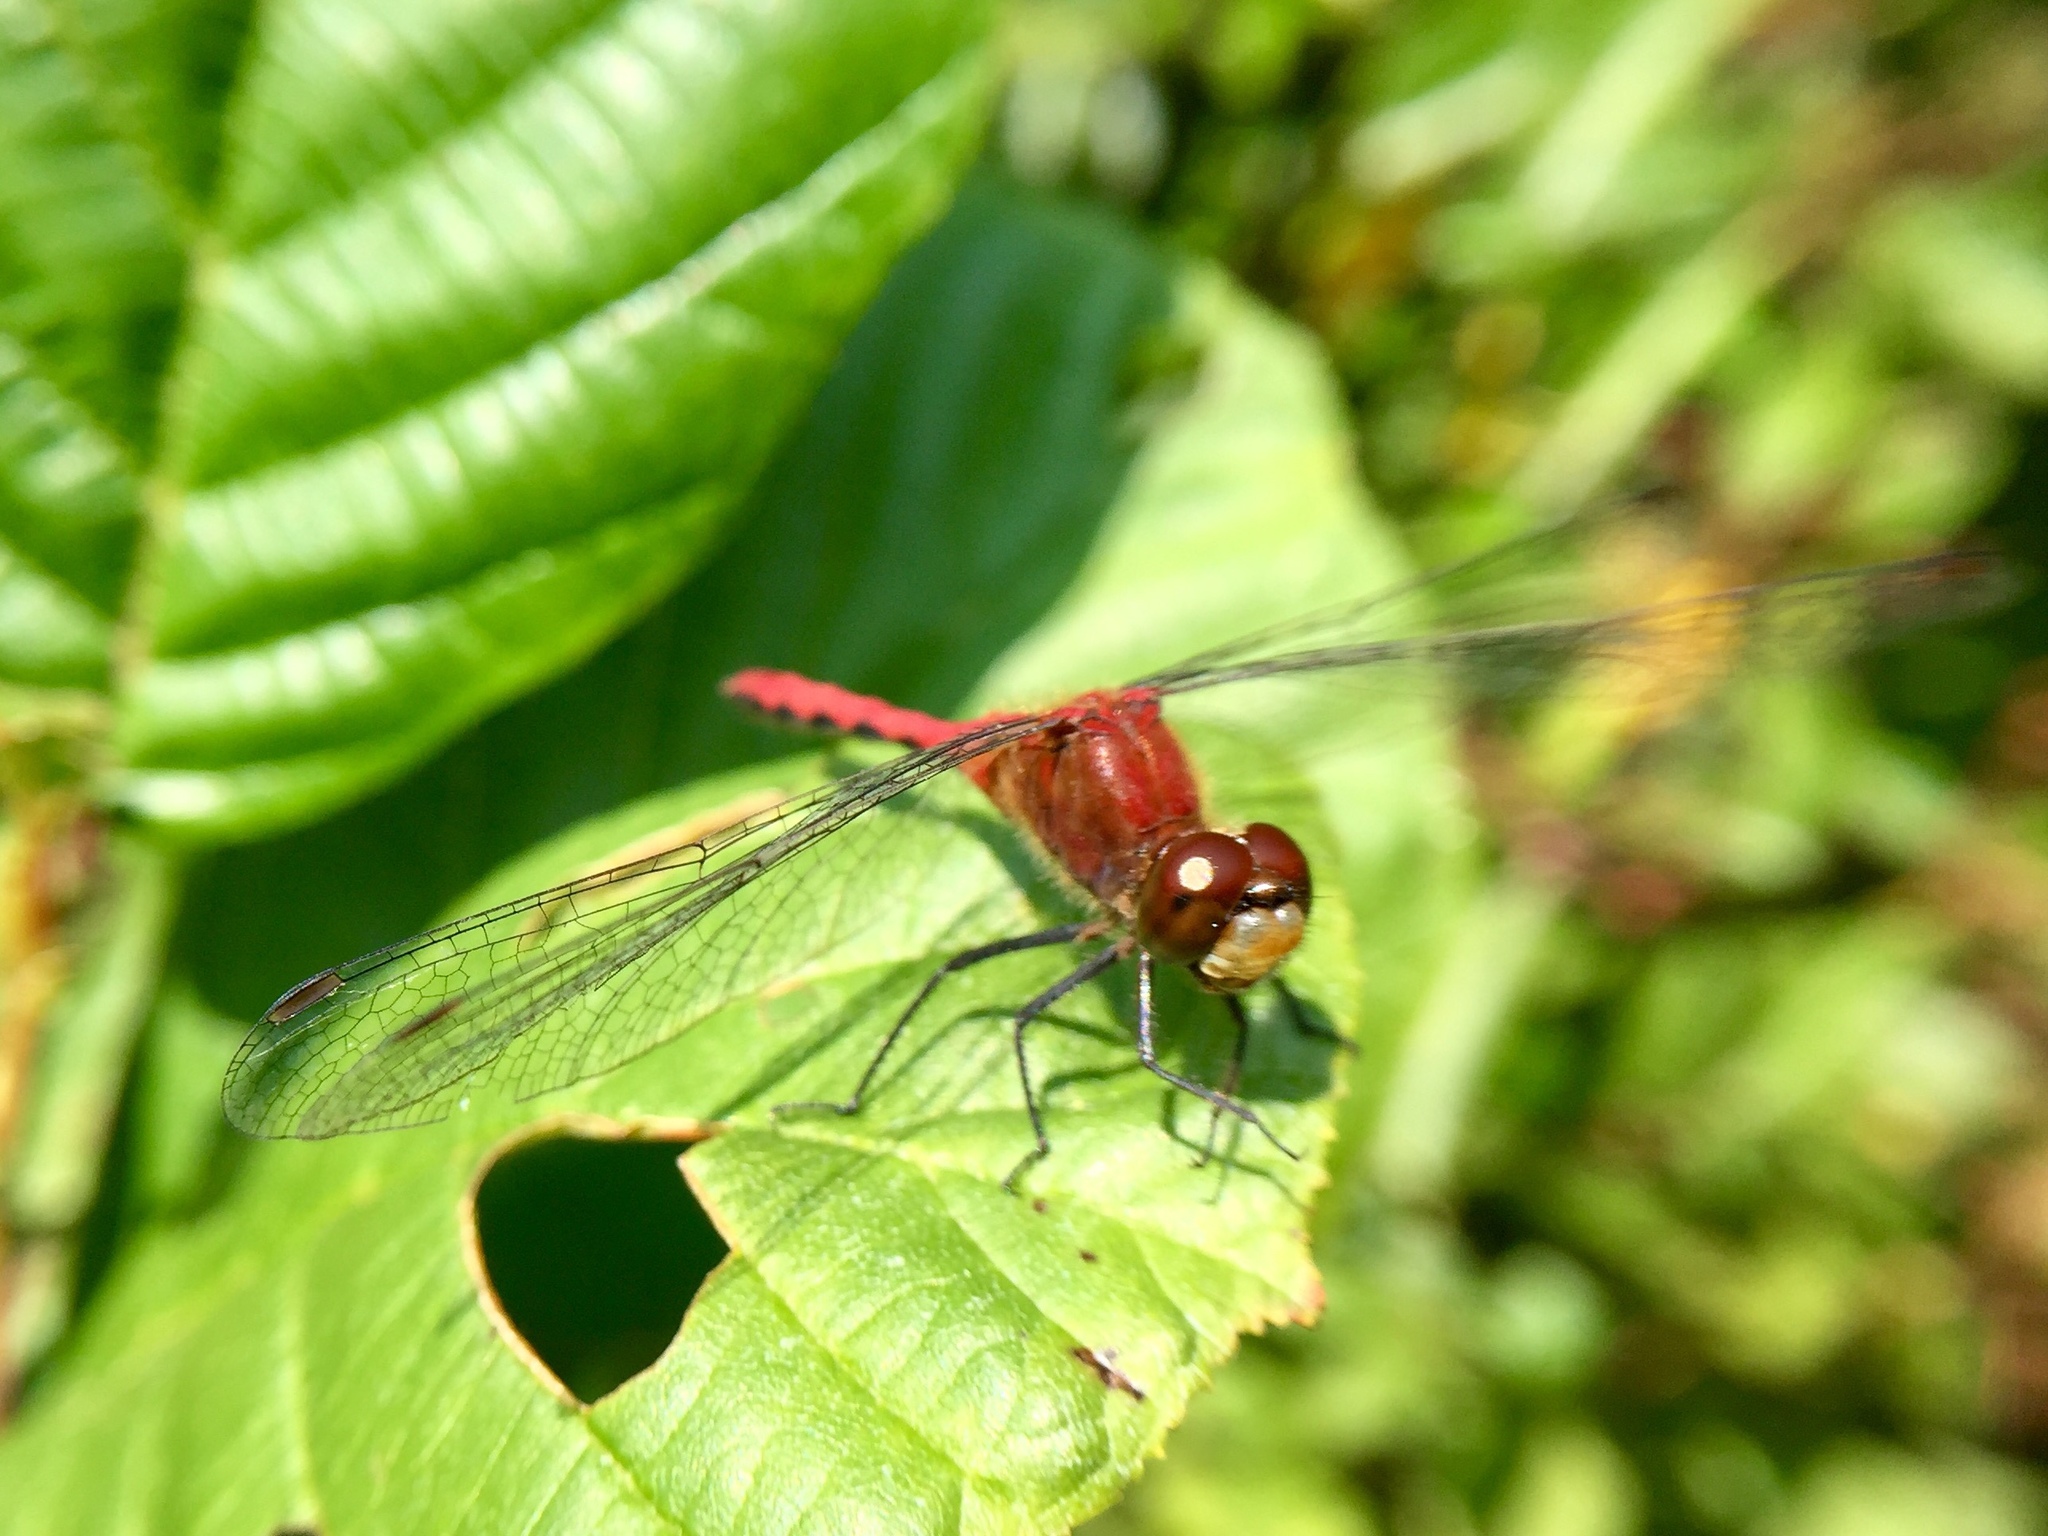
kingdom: Animalia
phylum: Arthropoda
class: Insecta
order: Odonata
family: Libellulidae
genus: Sympetrum
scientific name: Sympetrum obtrusum
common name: White-faced meadowhawk
